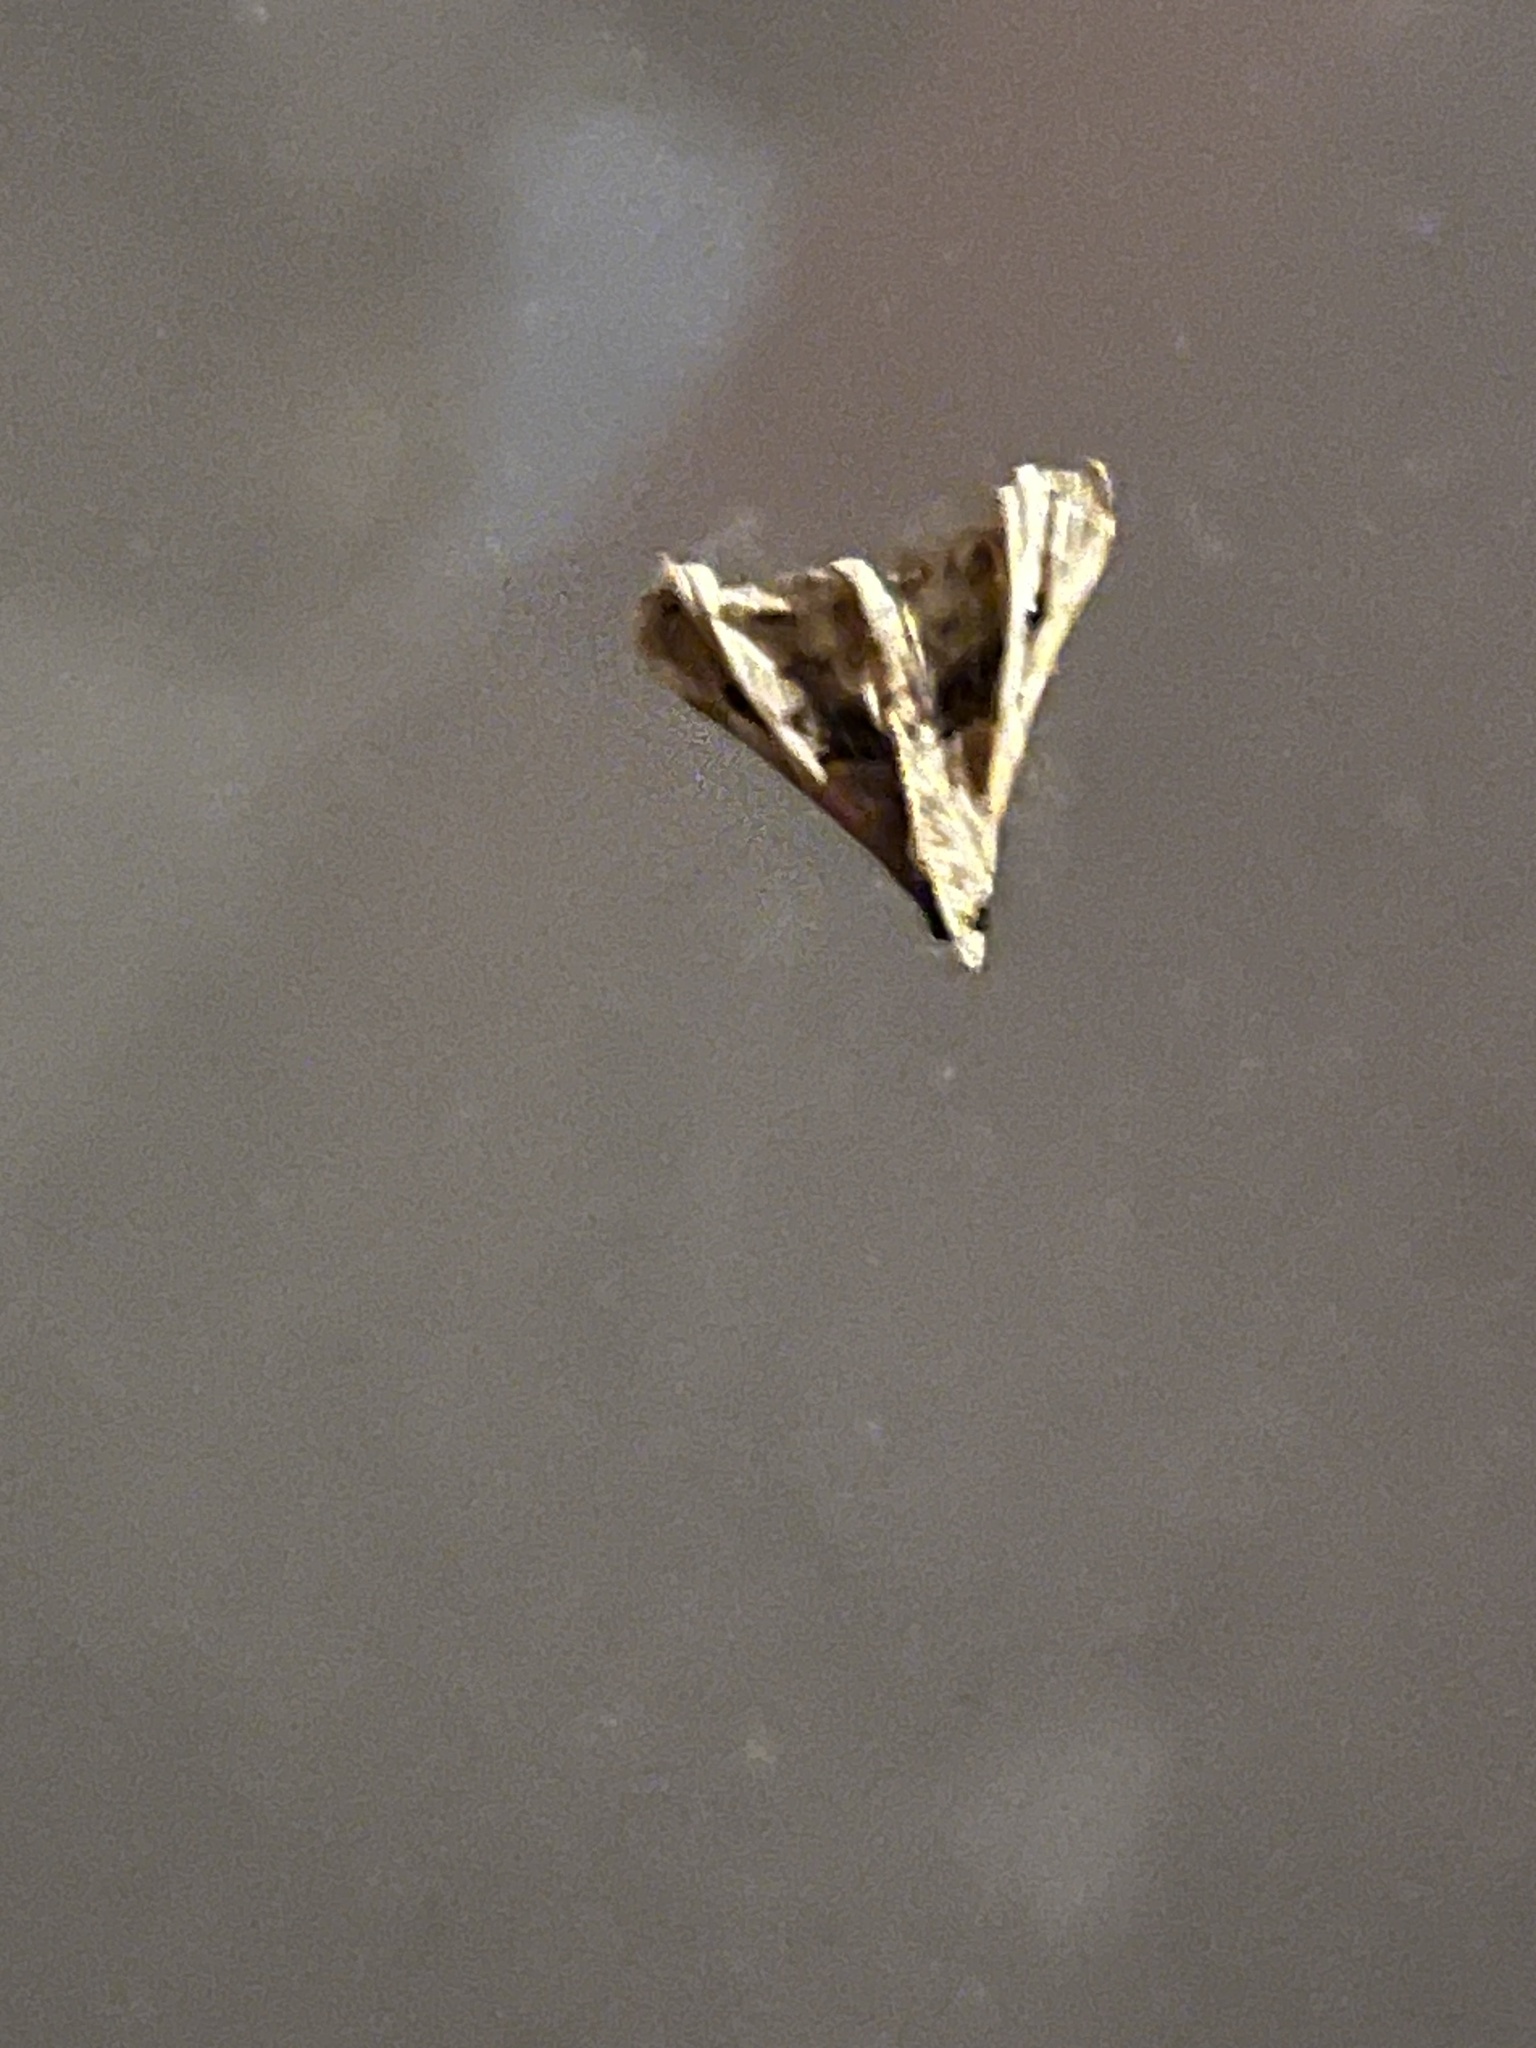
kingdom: Animalia
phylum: Arthropoda
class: Insecta
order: Lepidoptera
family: Erebidae
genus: Palthis
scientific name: Palthis asopialis
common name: Faint-spotted palthis moth
